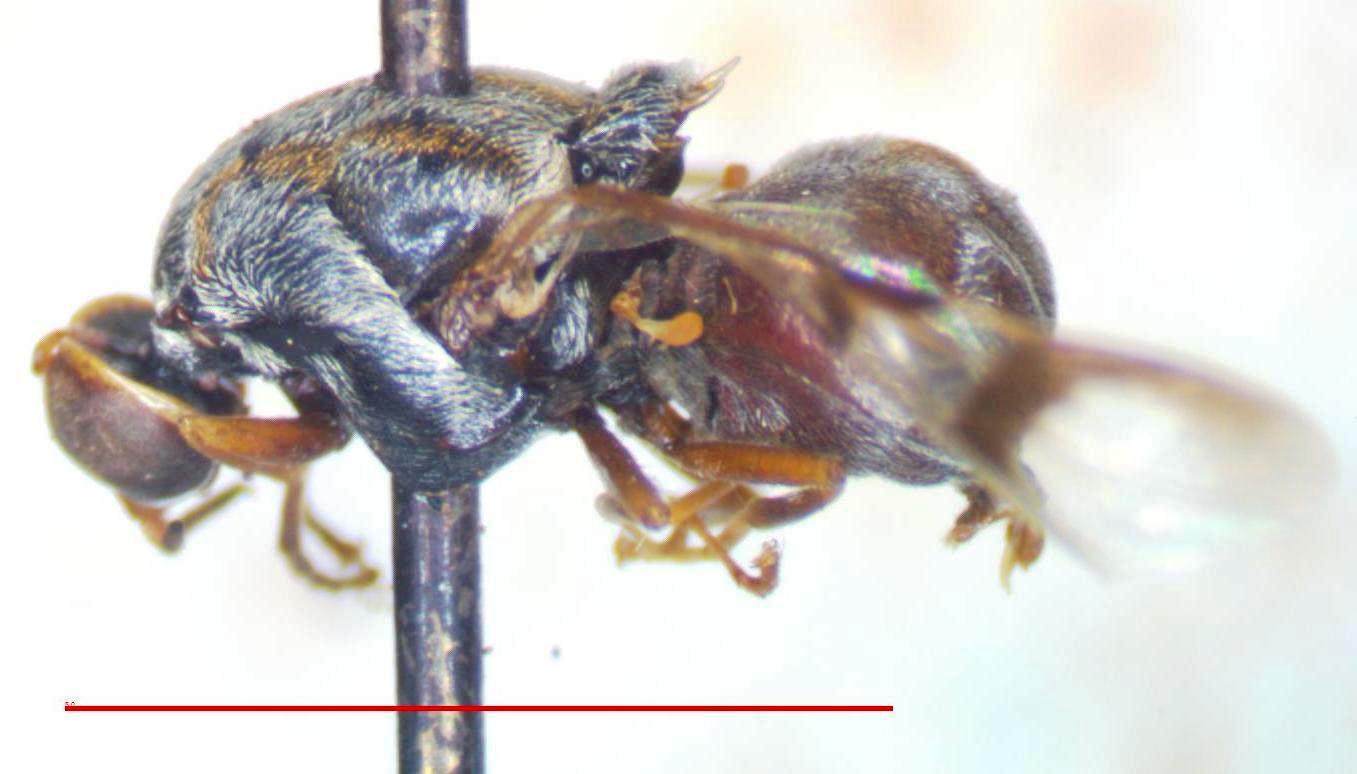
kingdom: Animalia
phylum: Arthropoda
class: Insecta
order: Diptera
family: Stratiomyidae
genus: Artemita
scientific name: Artemita podexargenteus
